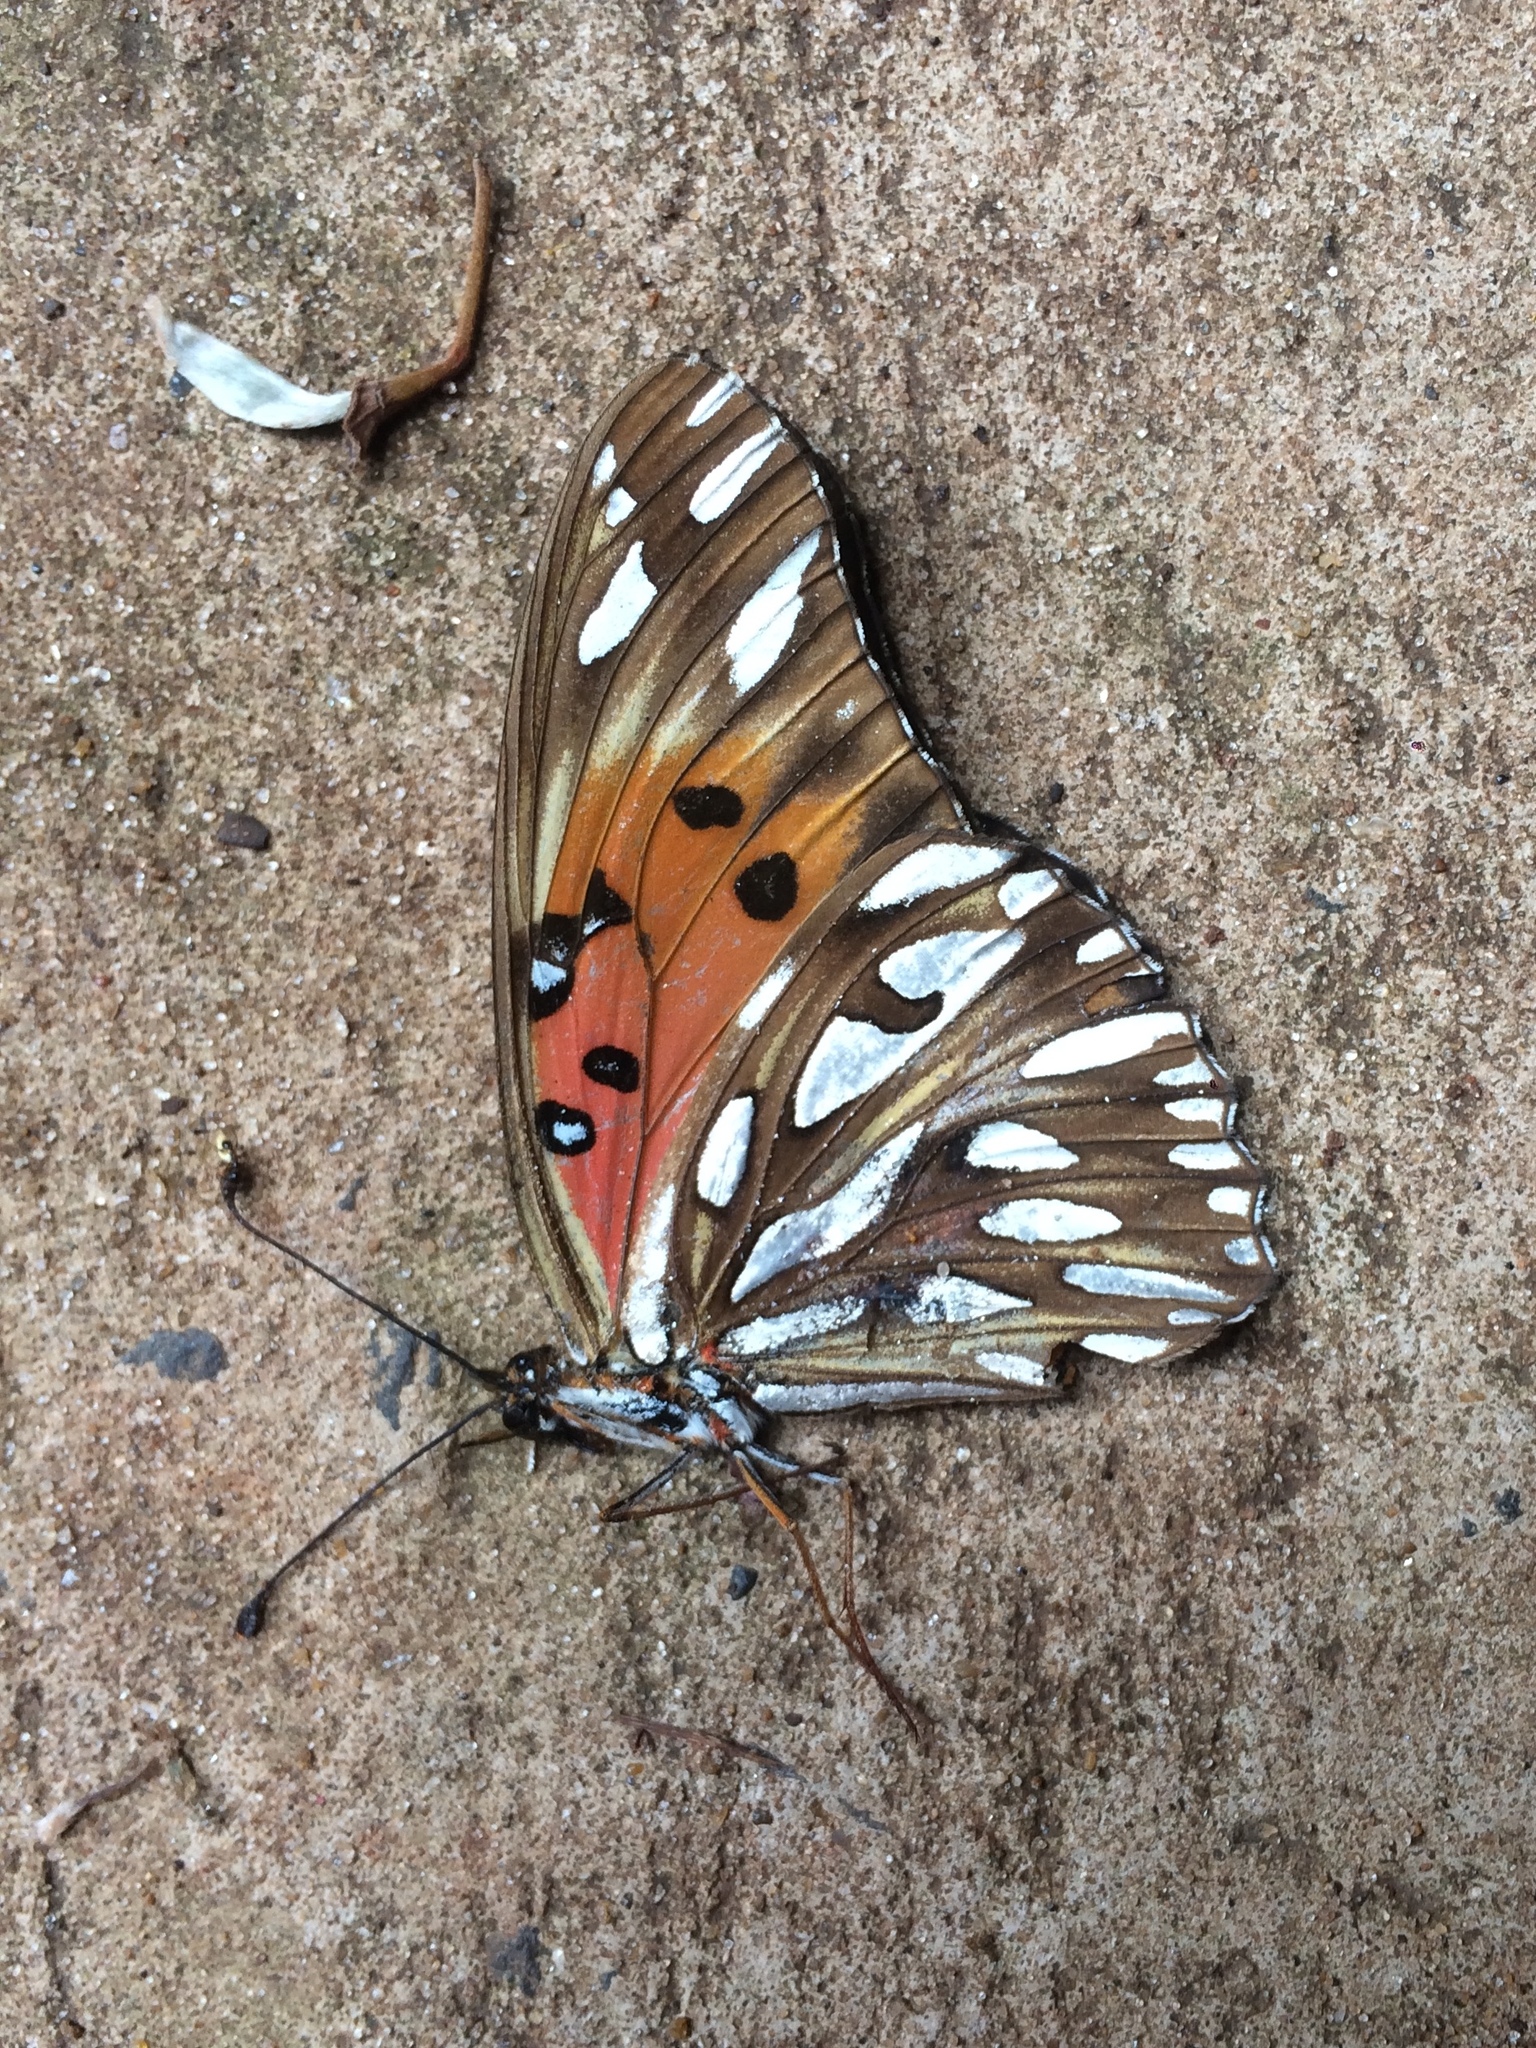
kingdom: Animalia
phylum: Arthropoda
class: Insecta
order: Lepidoptera
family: Nymphalidae
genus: Dione
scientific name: Dione vanillae
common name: Gulf fritillary
